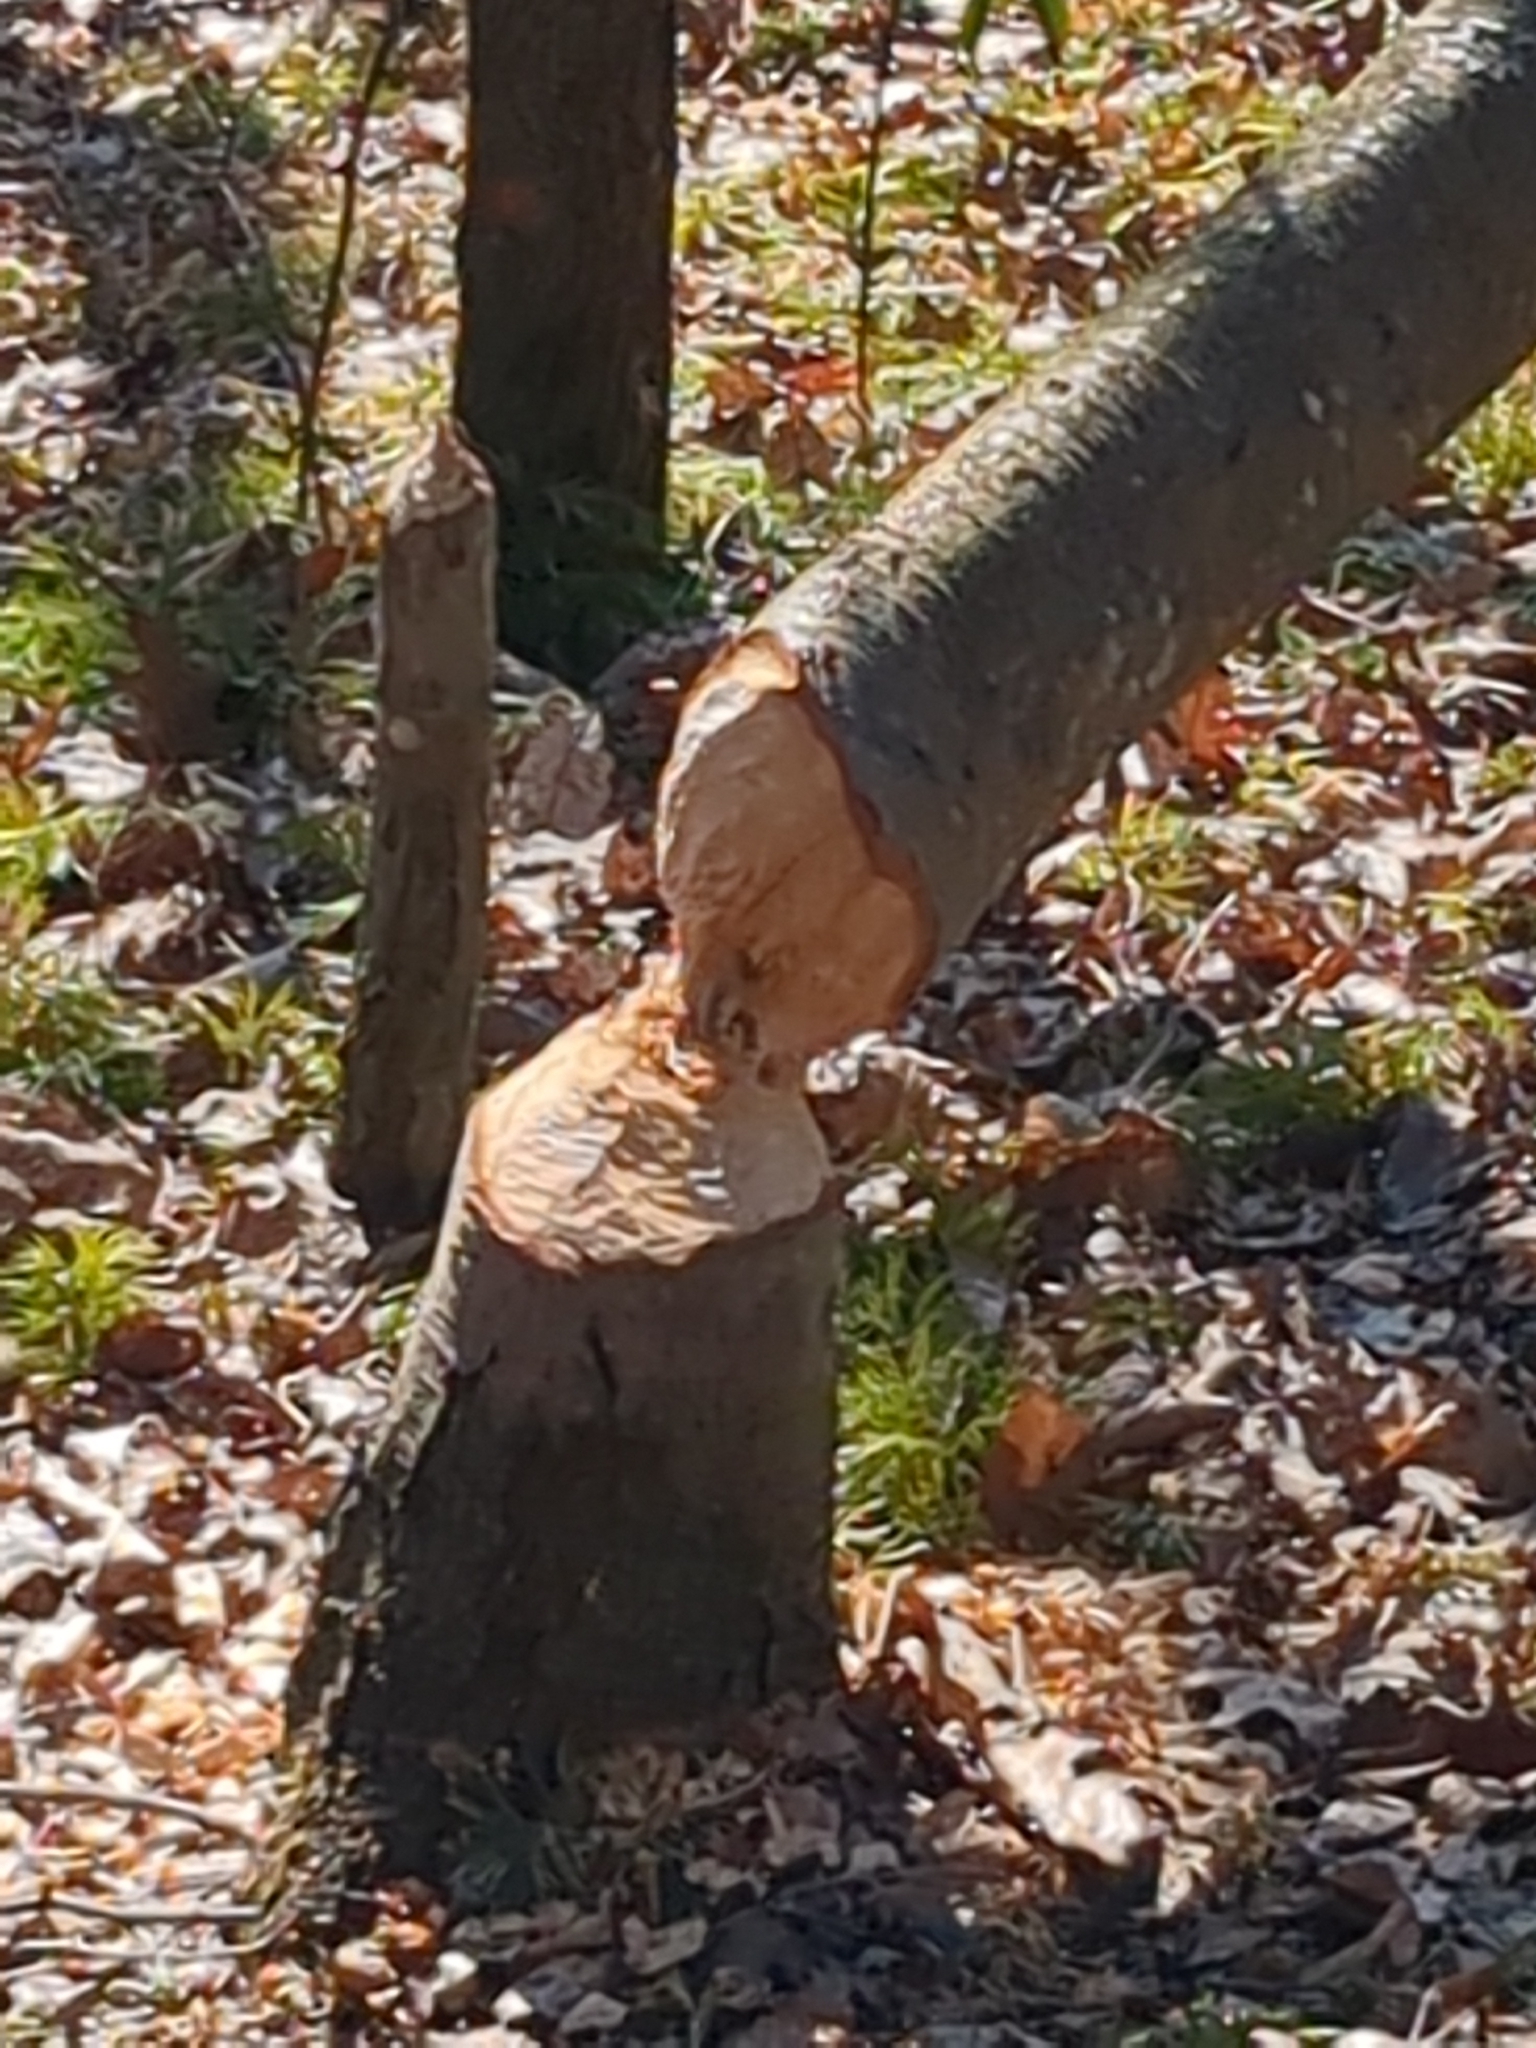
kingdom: Animalia
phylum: Chordata
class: Mammalia
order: Rodentia
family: Castoridae
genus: Castor
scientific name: Castor canadensis
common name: American beaver
